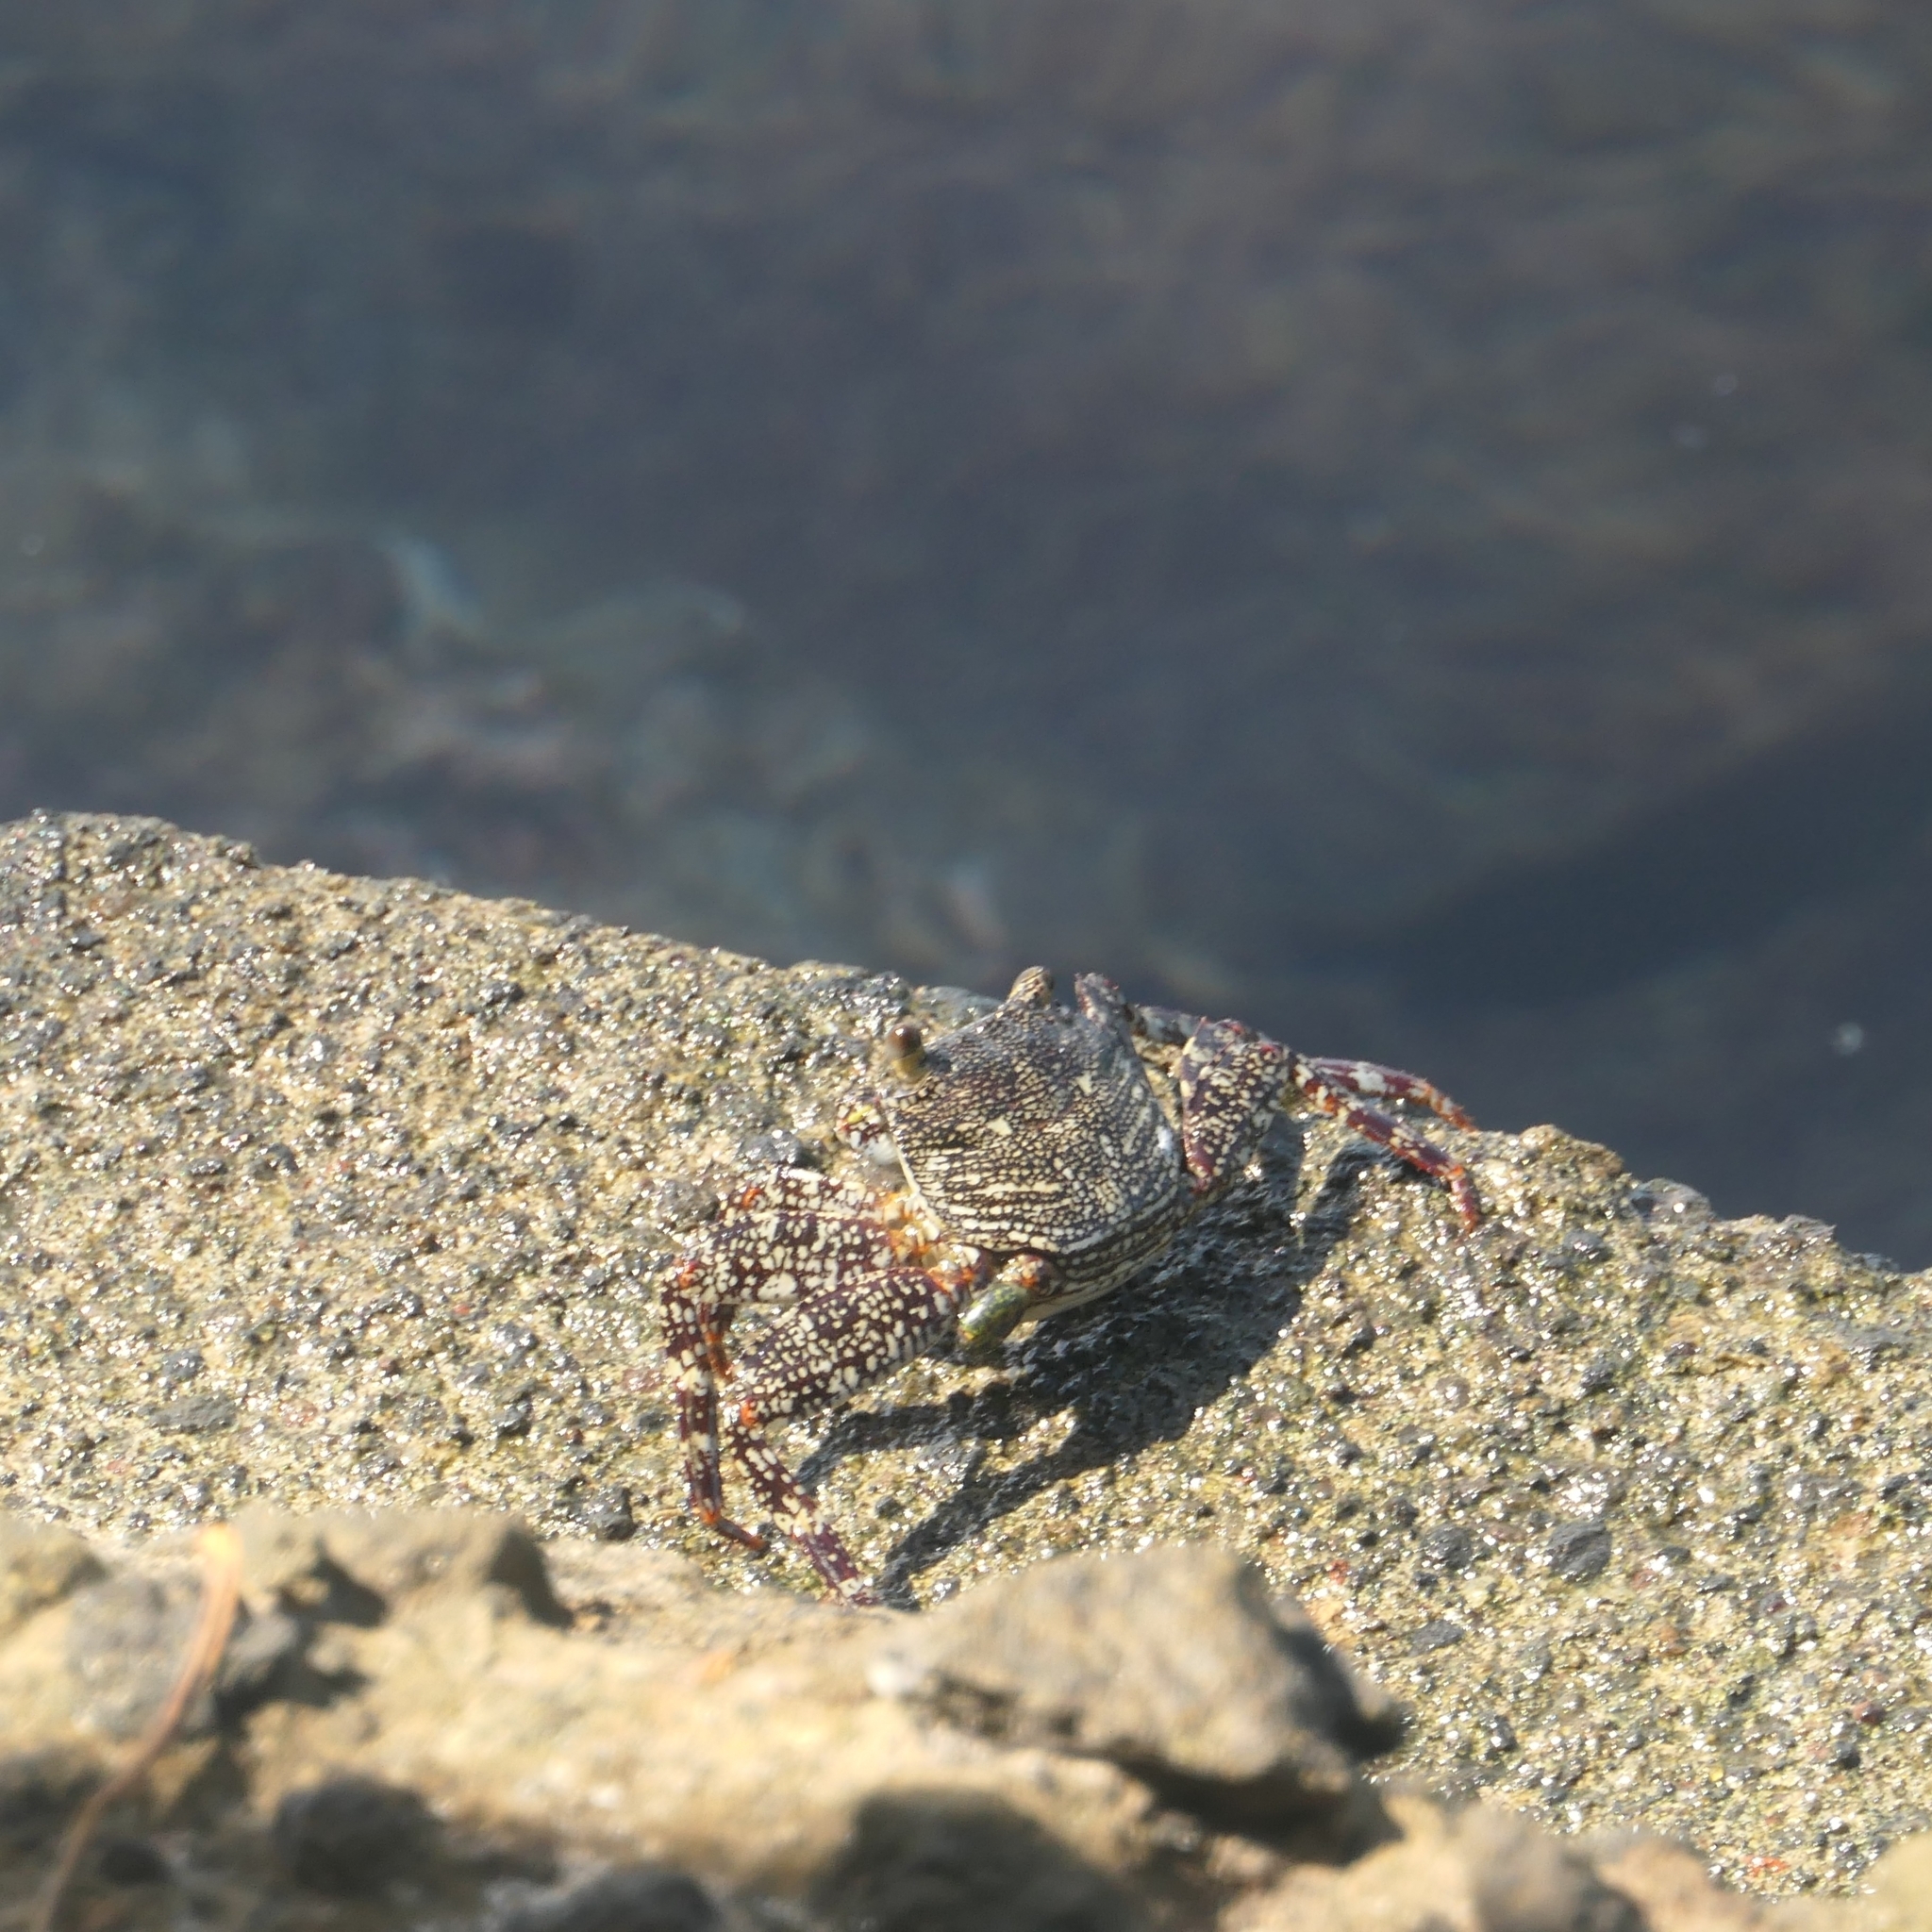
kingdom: Animalia
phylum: Arthropoda
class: Malacostraca
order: Decapoda
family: Grapsidae
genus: Grapsus
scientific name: Grapsus grapsus
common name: Sally lightfoot
